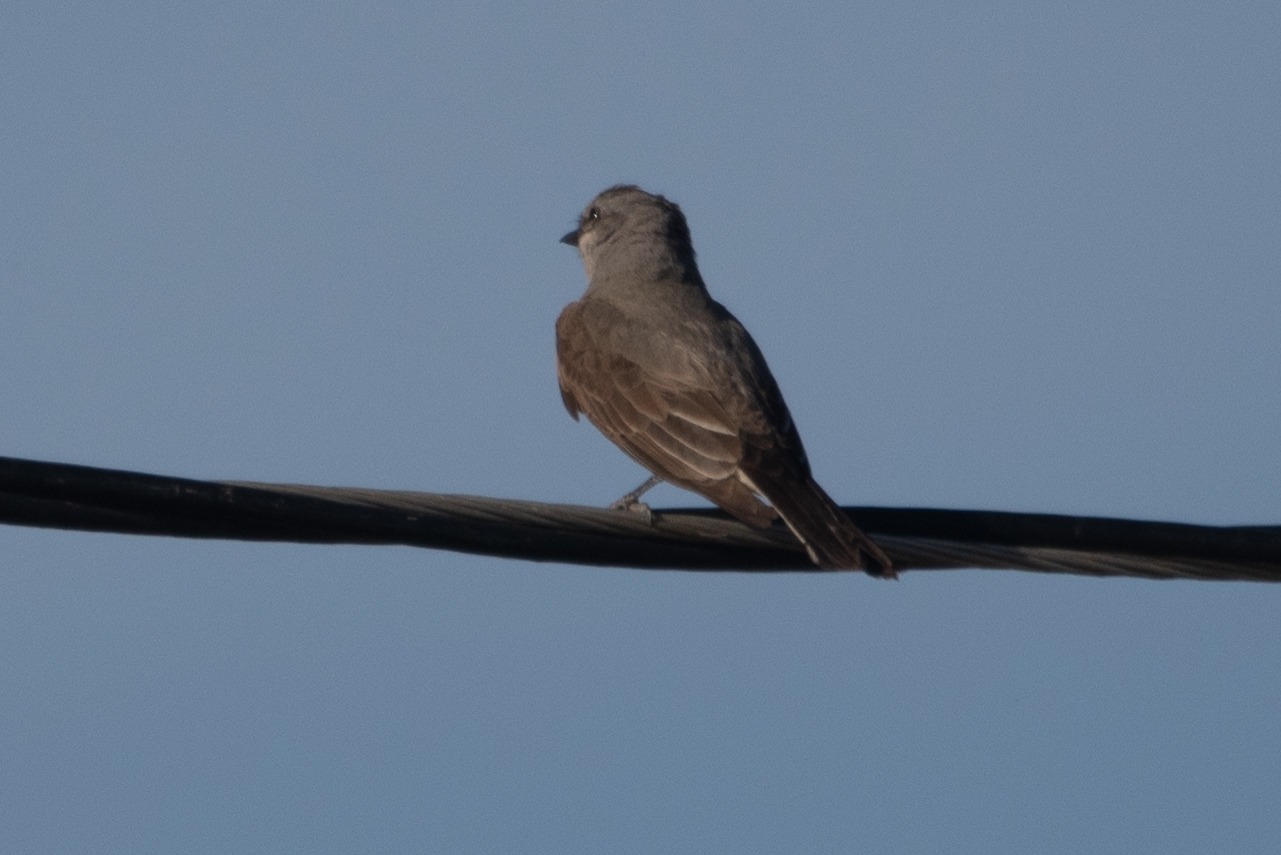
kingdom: Animalia
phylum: Chordata
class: Aves
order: Passeriformes
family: Tyrannidae
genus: Tyrannus
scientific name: Tyrannus verticalis
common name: Western kingbird
